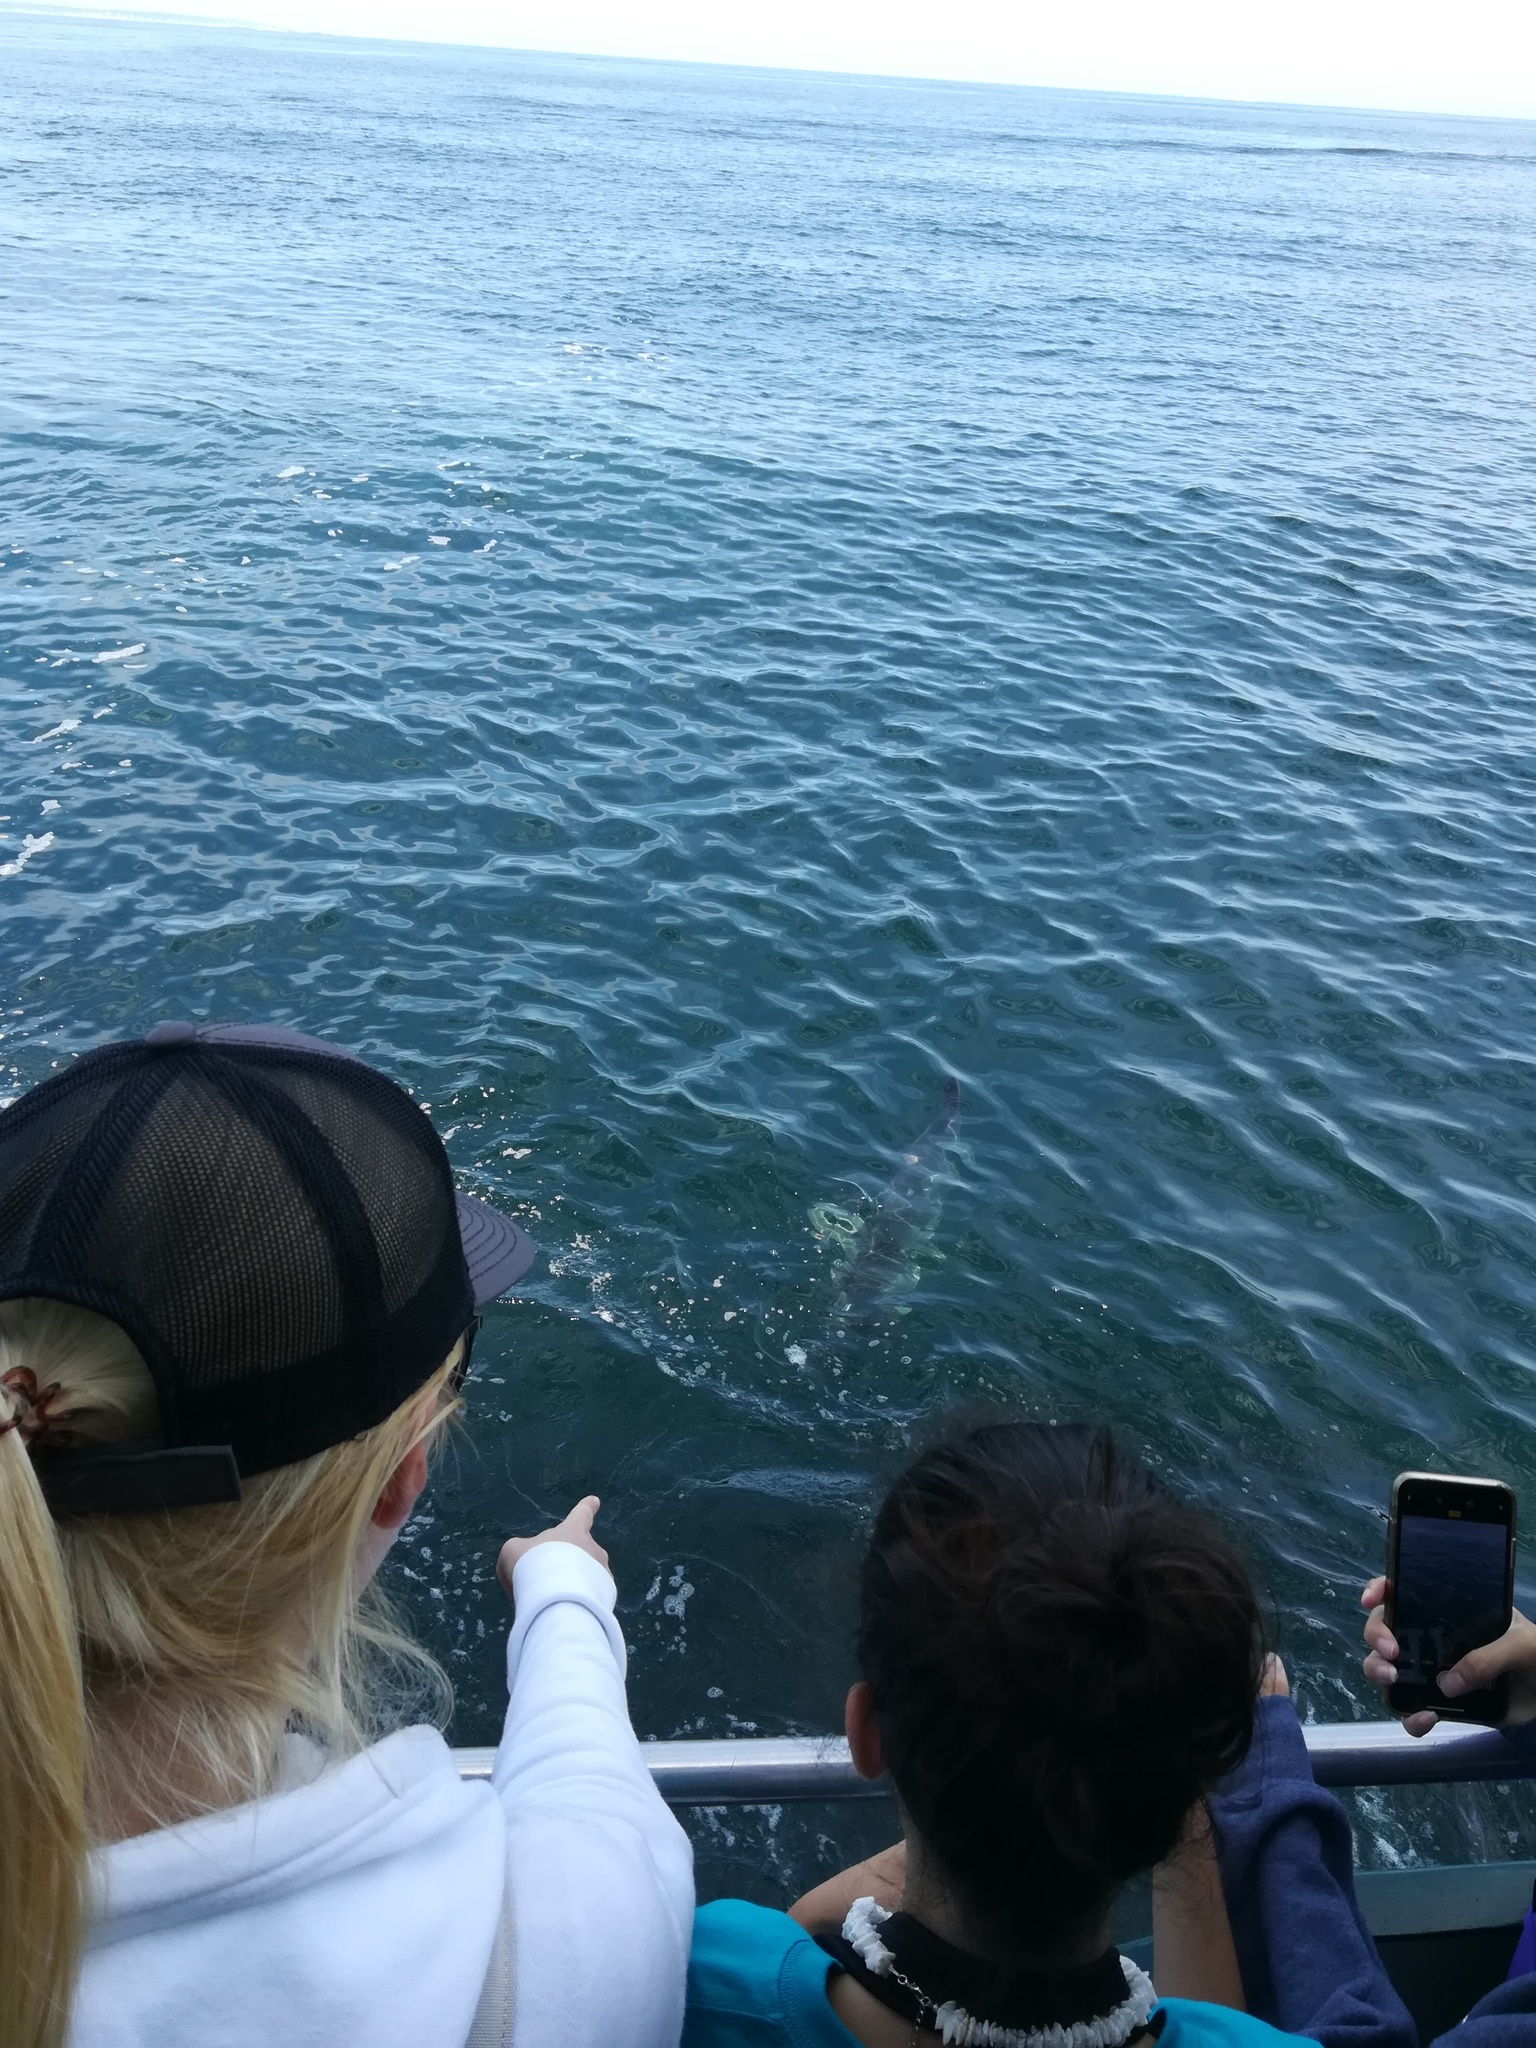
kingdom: Animalia
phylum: Chordata
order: Tetraodontiformes
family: Molidae
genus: Mola
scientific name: Mola mola
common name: Ocean sunfish
